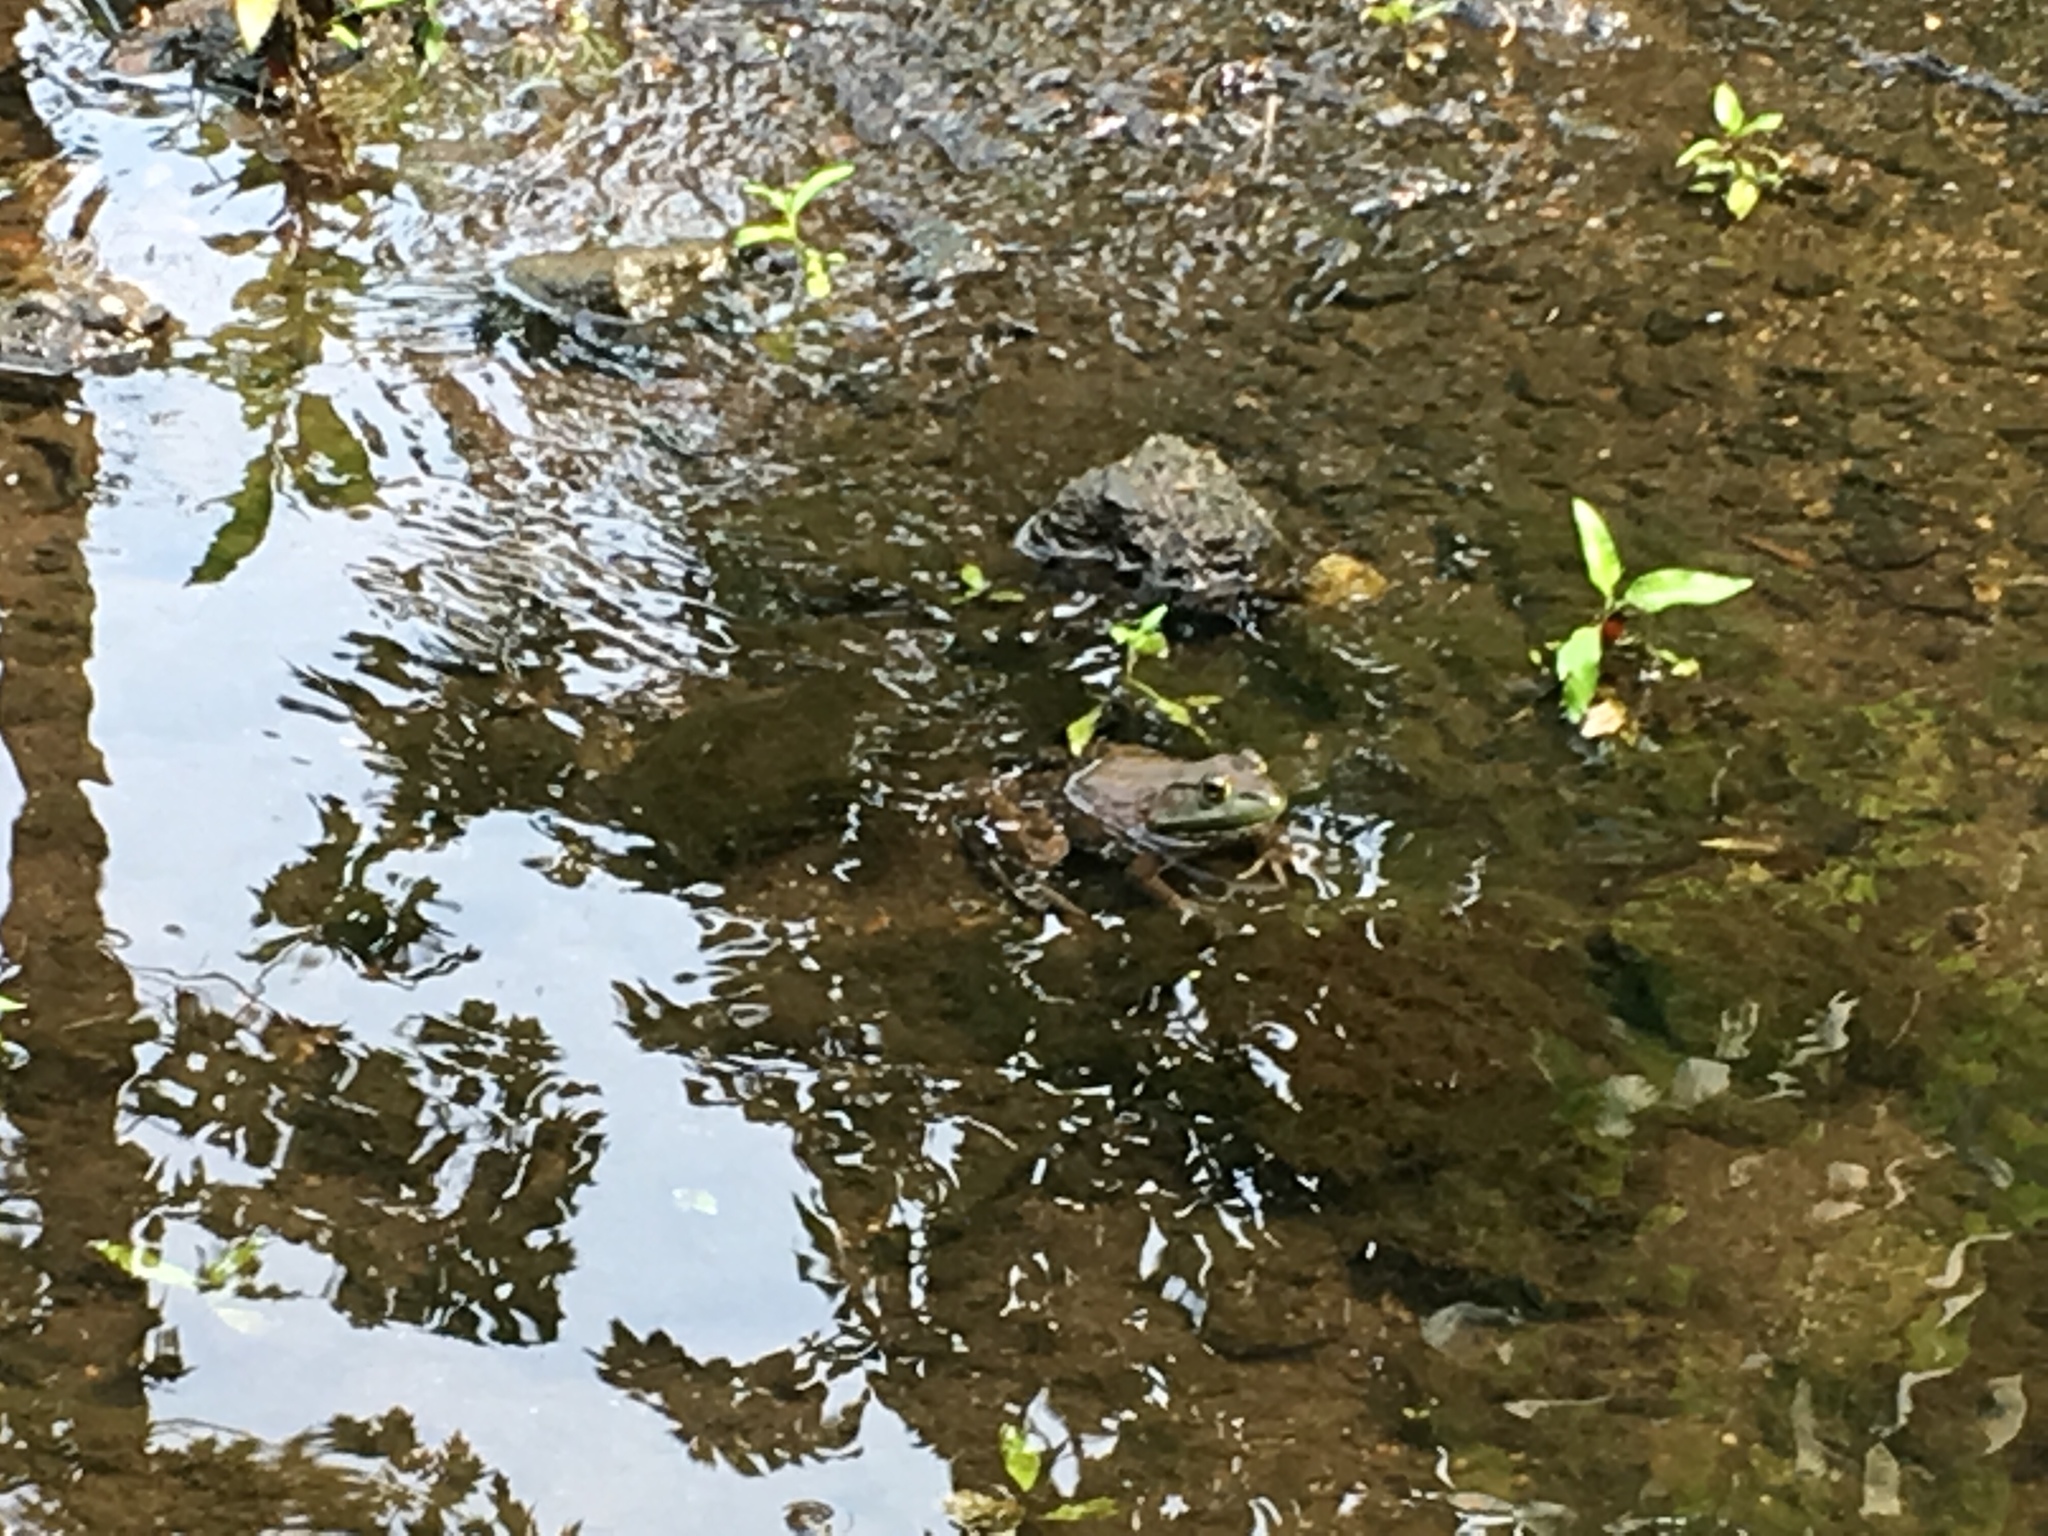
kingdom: Animalia
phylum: Chordata
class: Amphibia
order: Anura
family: Ranidae
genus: Lithobates
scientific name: Lithobates catesbeianus
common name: American bullfrog
